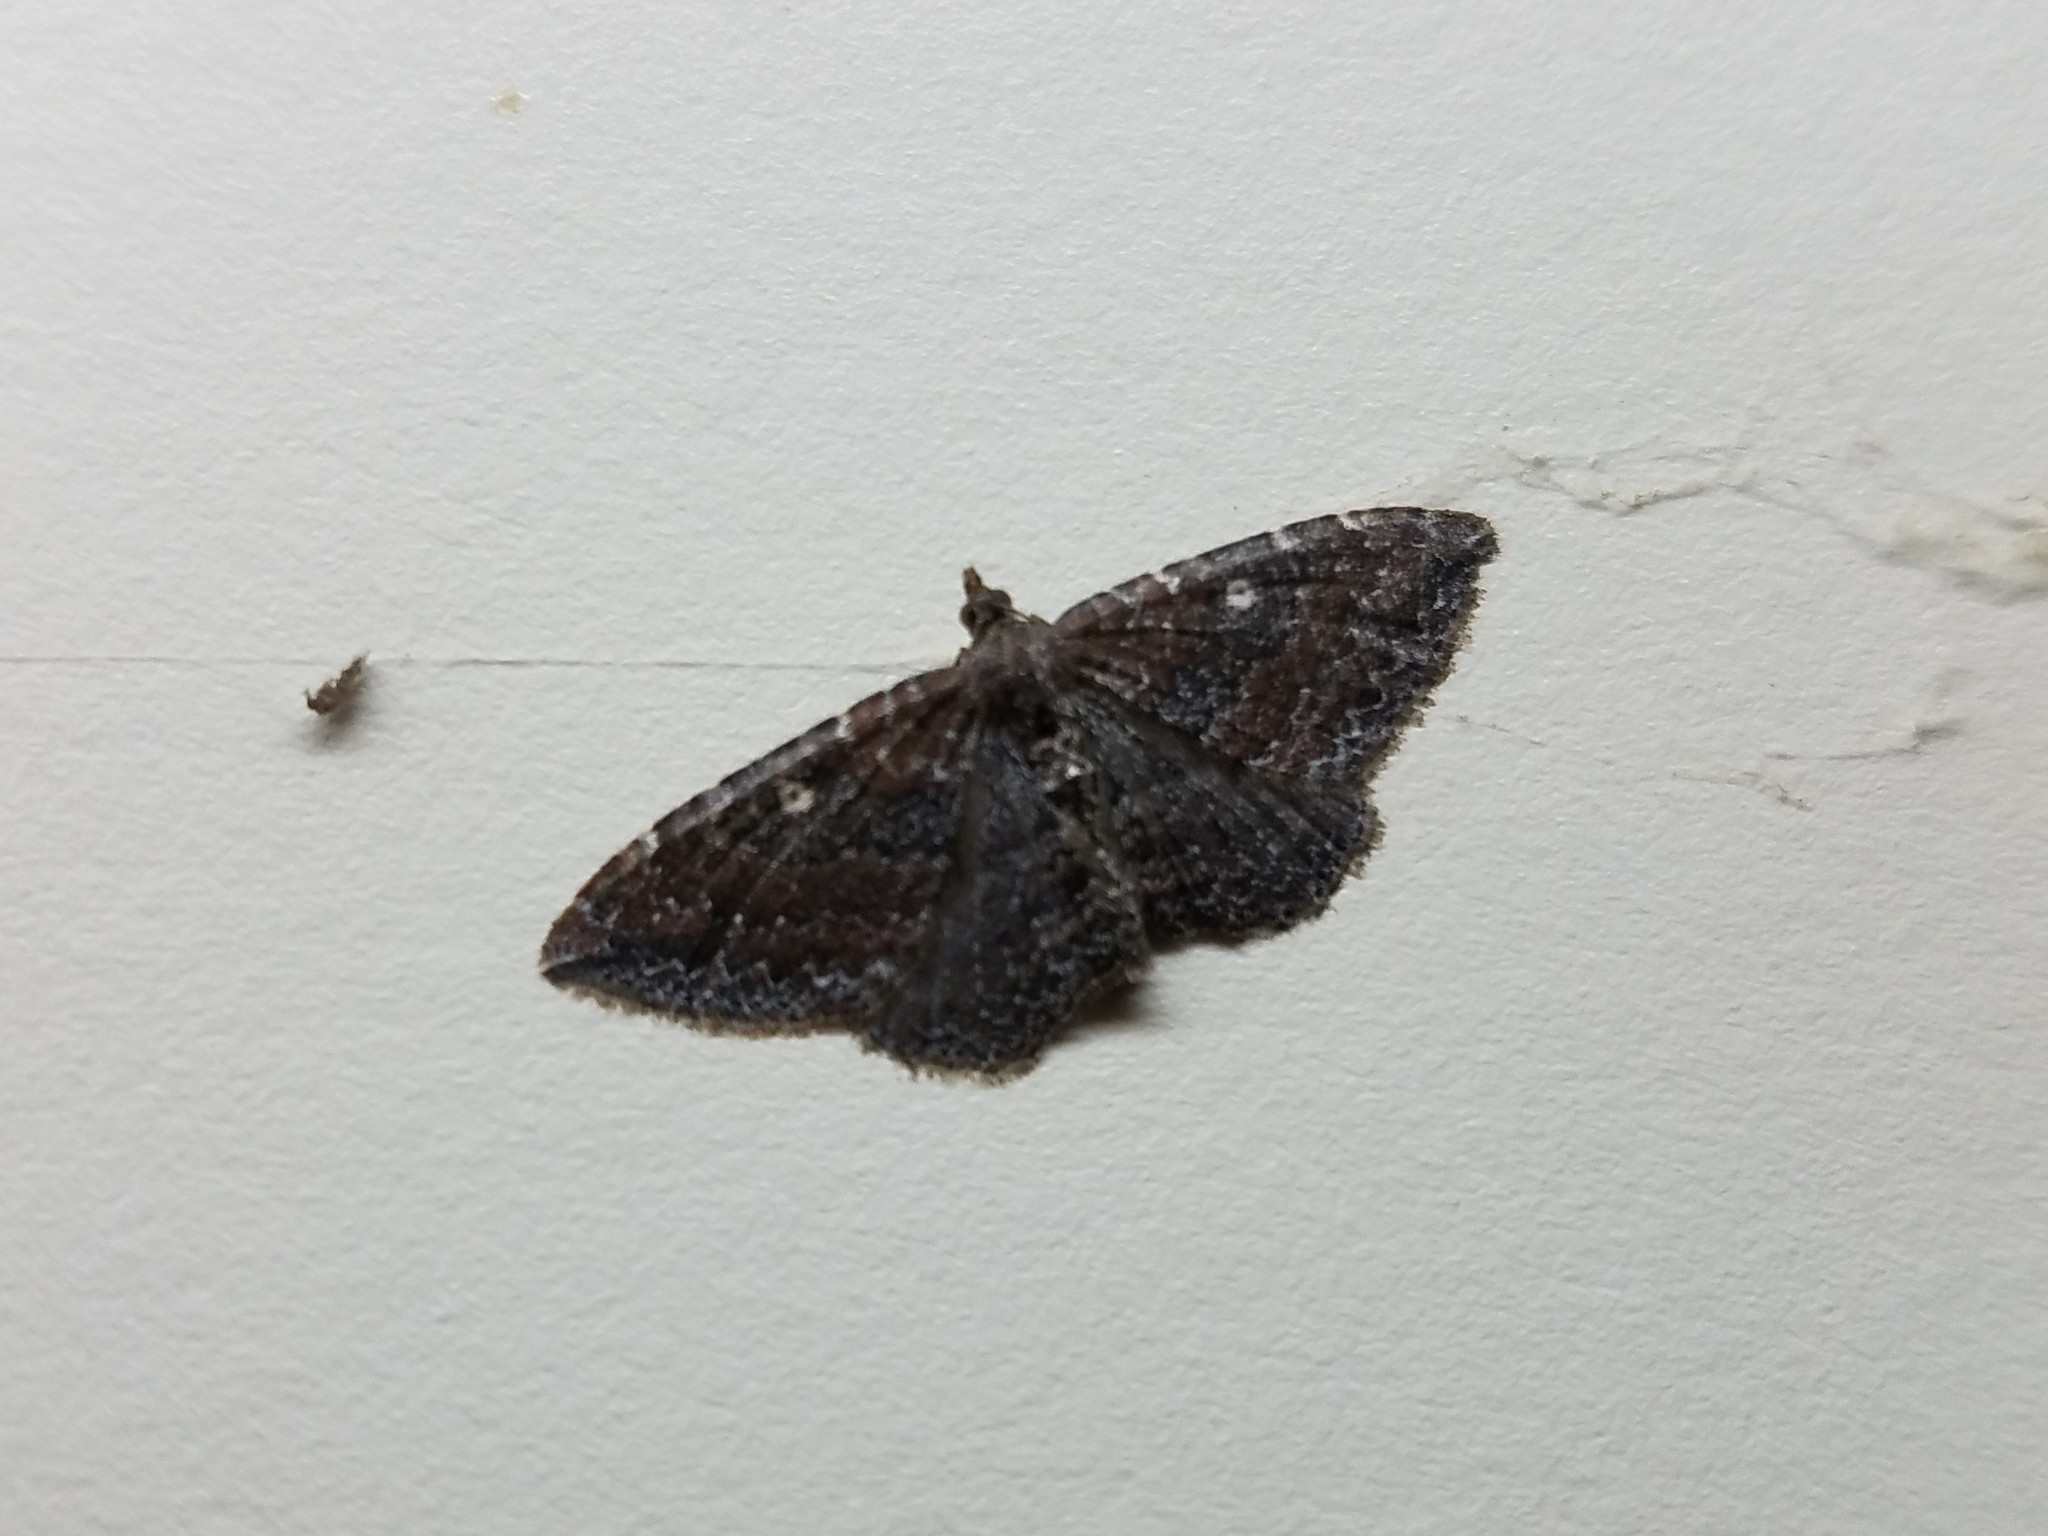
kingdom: Animalia
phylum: Arthropoda
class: Insecta
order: Lepidoptera
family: Geometridae
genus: Orthonama
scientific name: Orthonama obstipata
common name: The gem
